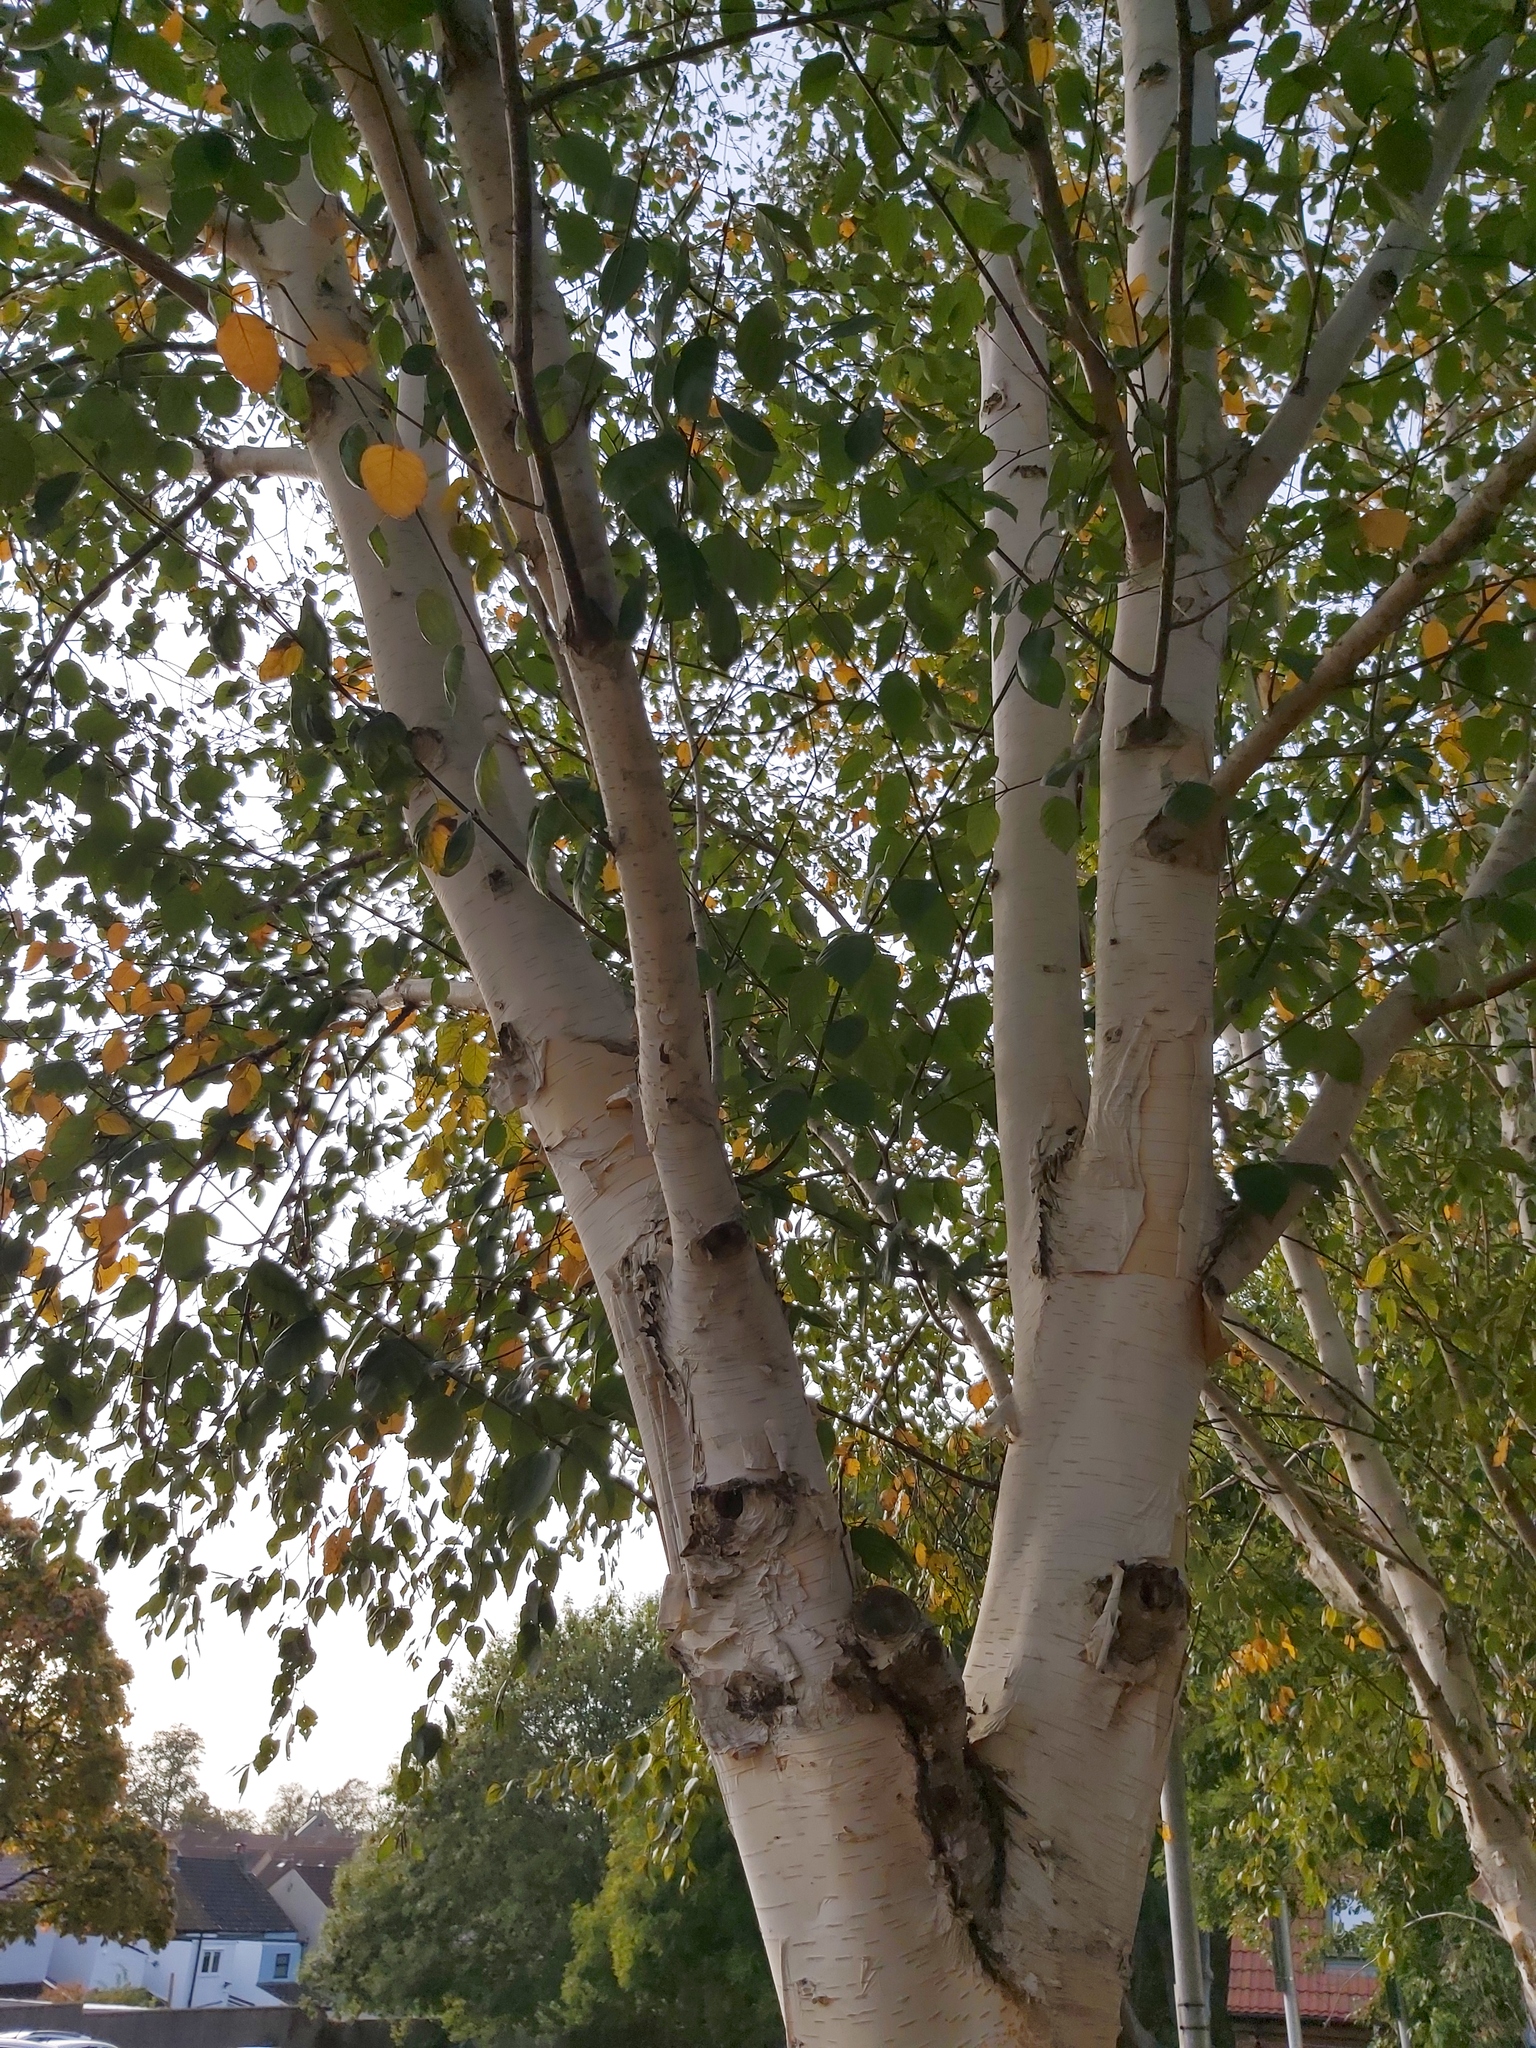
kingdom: Plantae
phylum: Tracheophyta
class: Magnoliopsida
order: Fagales
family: Betulaceae
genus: Betula
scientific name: Betula pendula
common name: Silver birch
